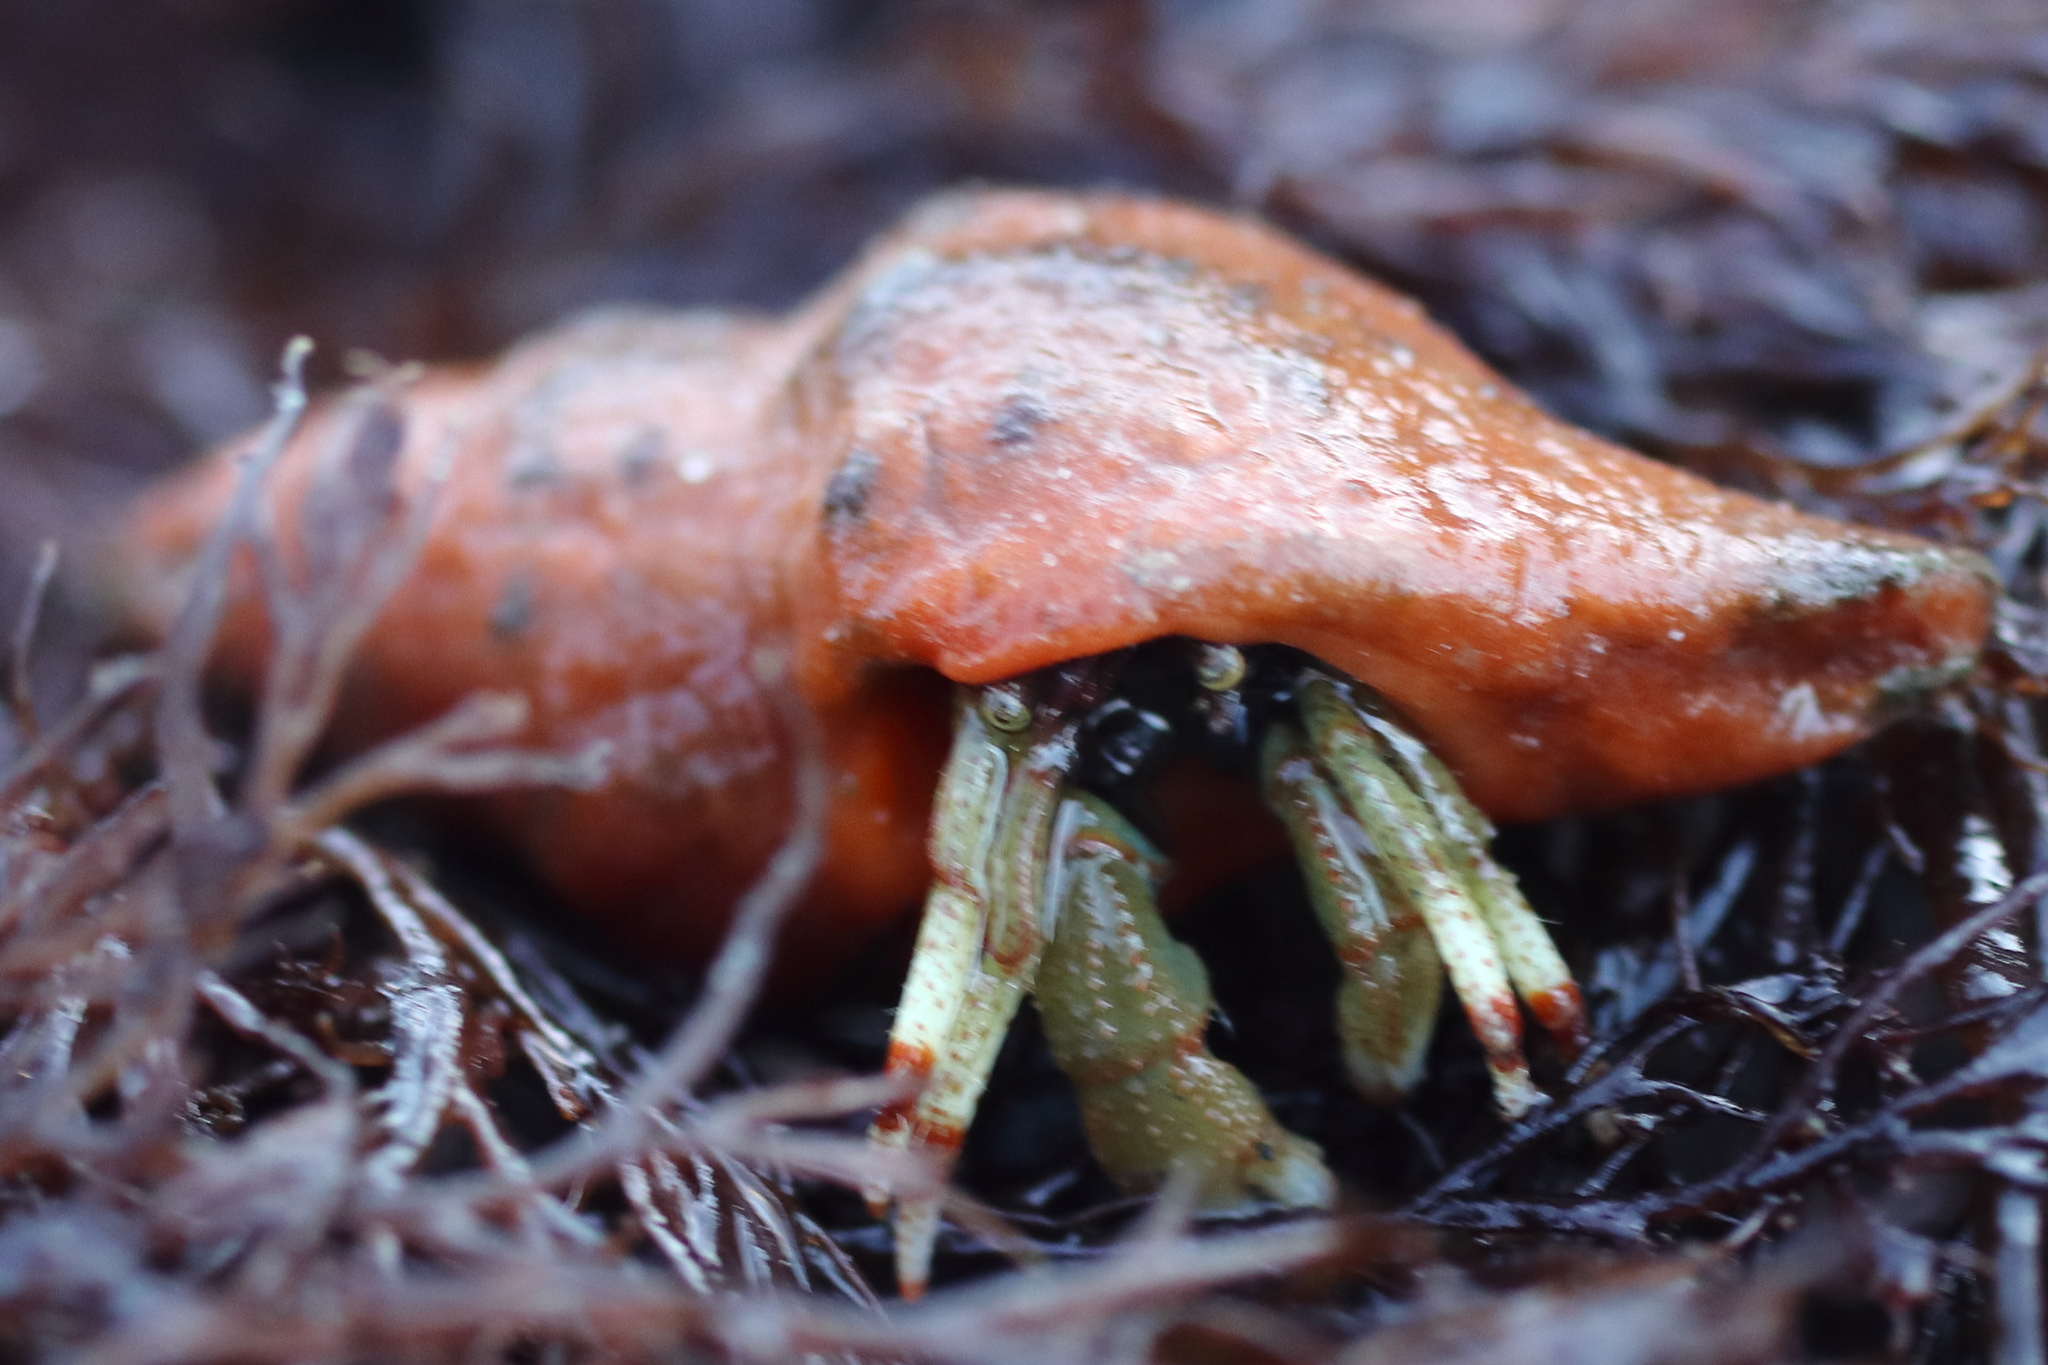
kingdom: Animalia
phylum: Arthropoda
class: Malacostraca
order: Decapoda
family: Paguridae
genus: Pagurus
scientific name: Pagurus beringanus
